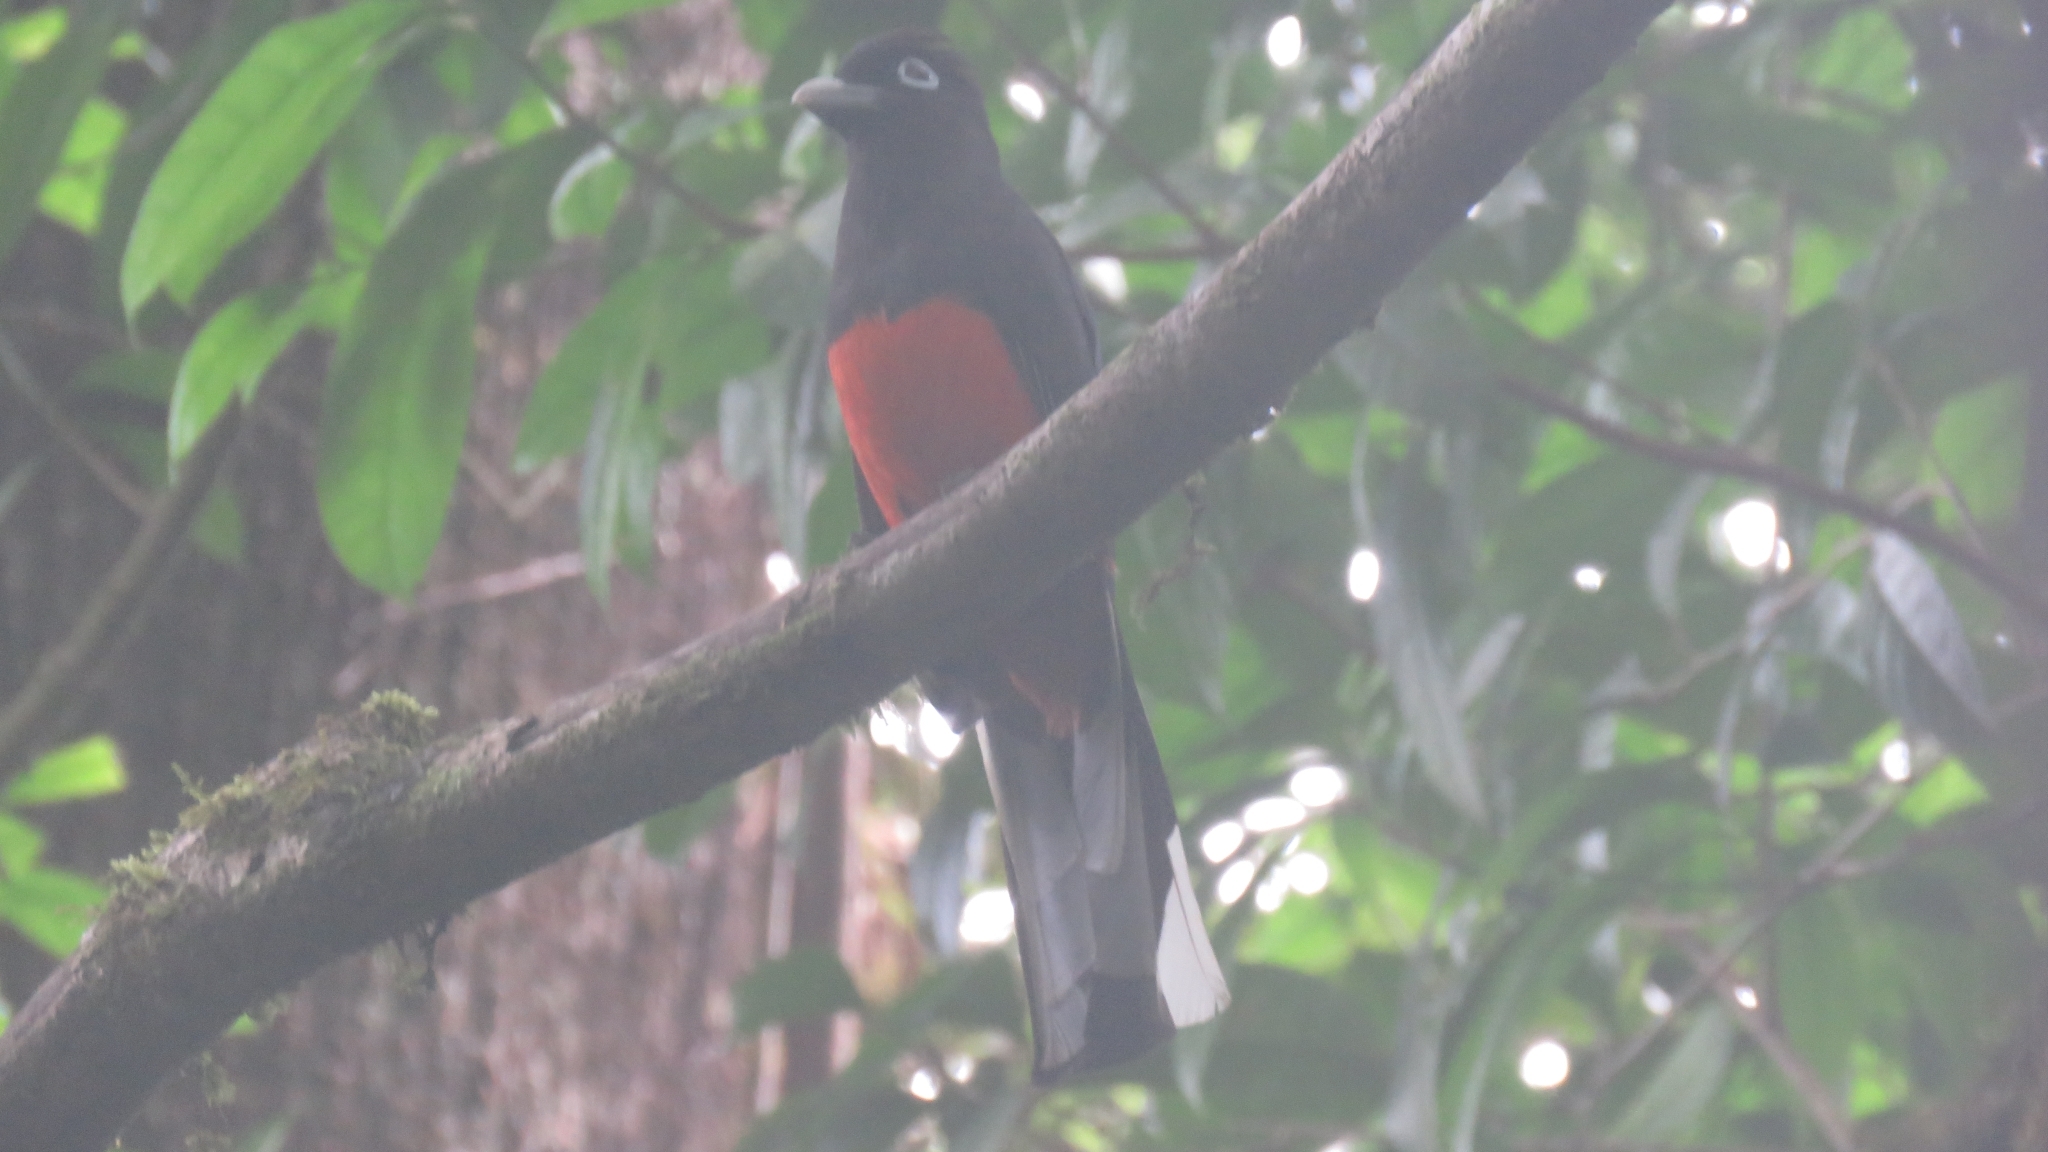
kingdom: Animalia
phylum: Chordata
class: Aves
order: Trogoniformes
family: Trogonidae
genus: Trogon
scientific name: Trogon bairdii
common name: Baird's trogon
